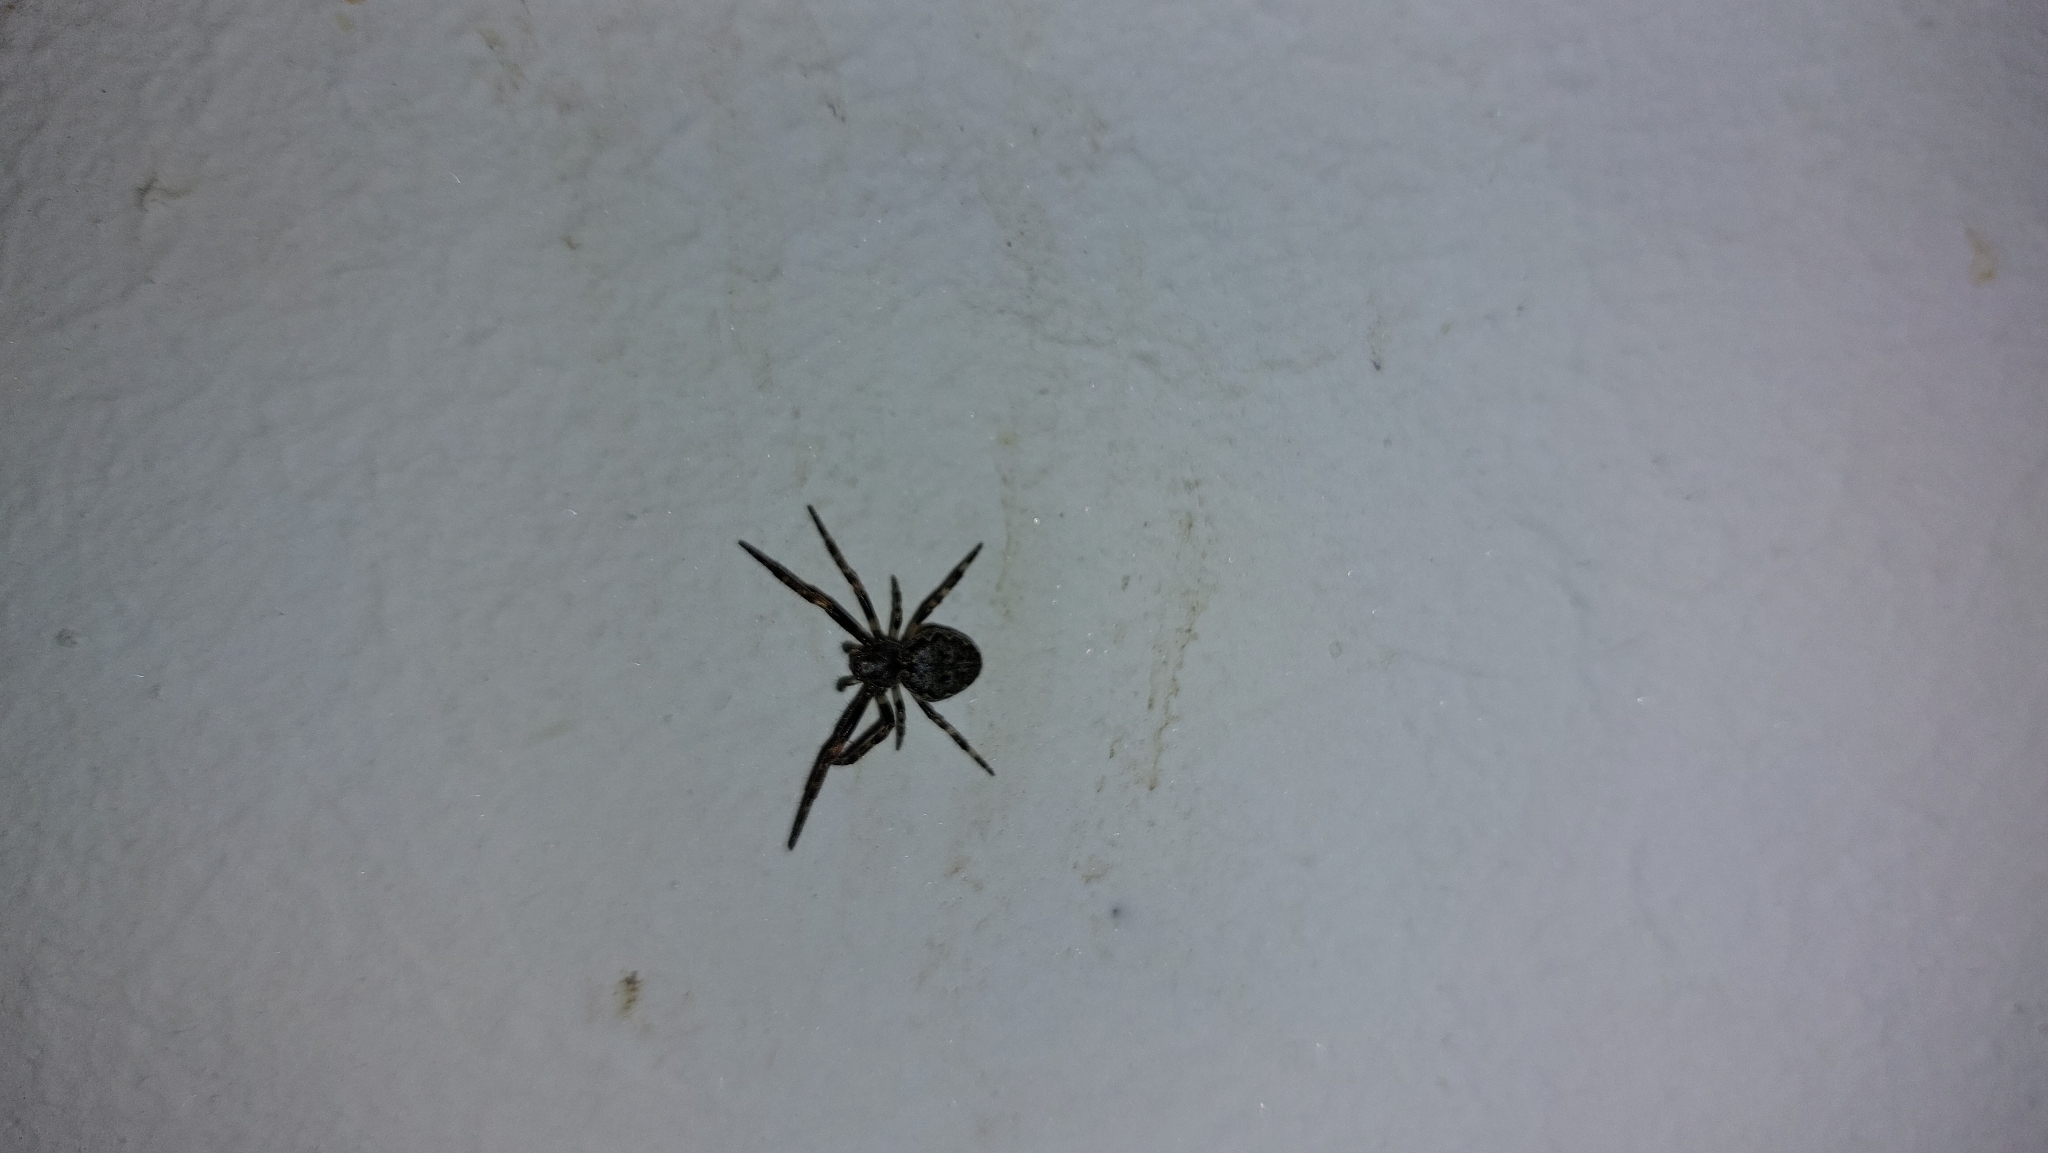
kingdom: Animalia
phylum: Arthropoda
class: Arachnida
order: Araneae
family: Araneidae
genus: Nuctenea
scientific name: Nuctenea umbratica
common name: Toad spider
